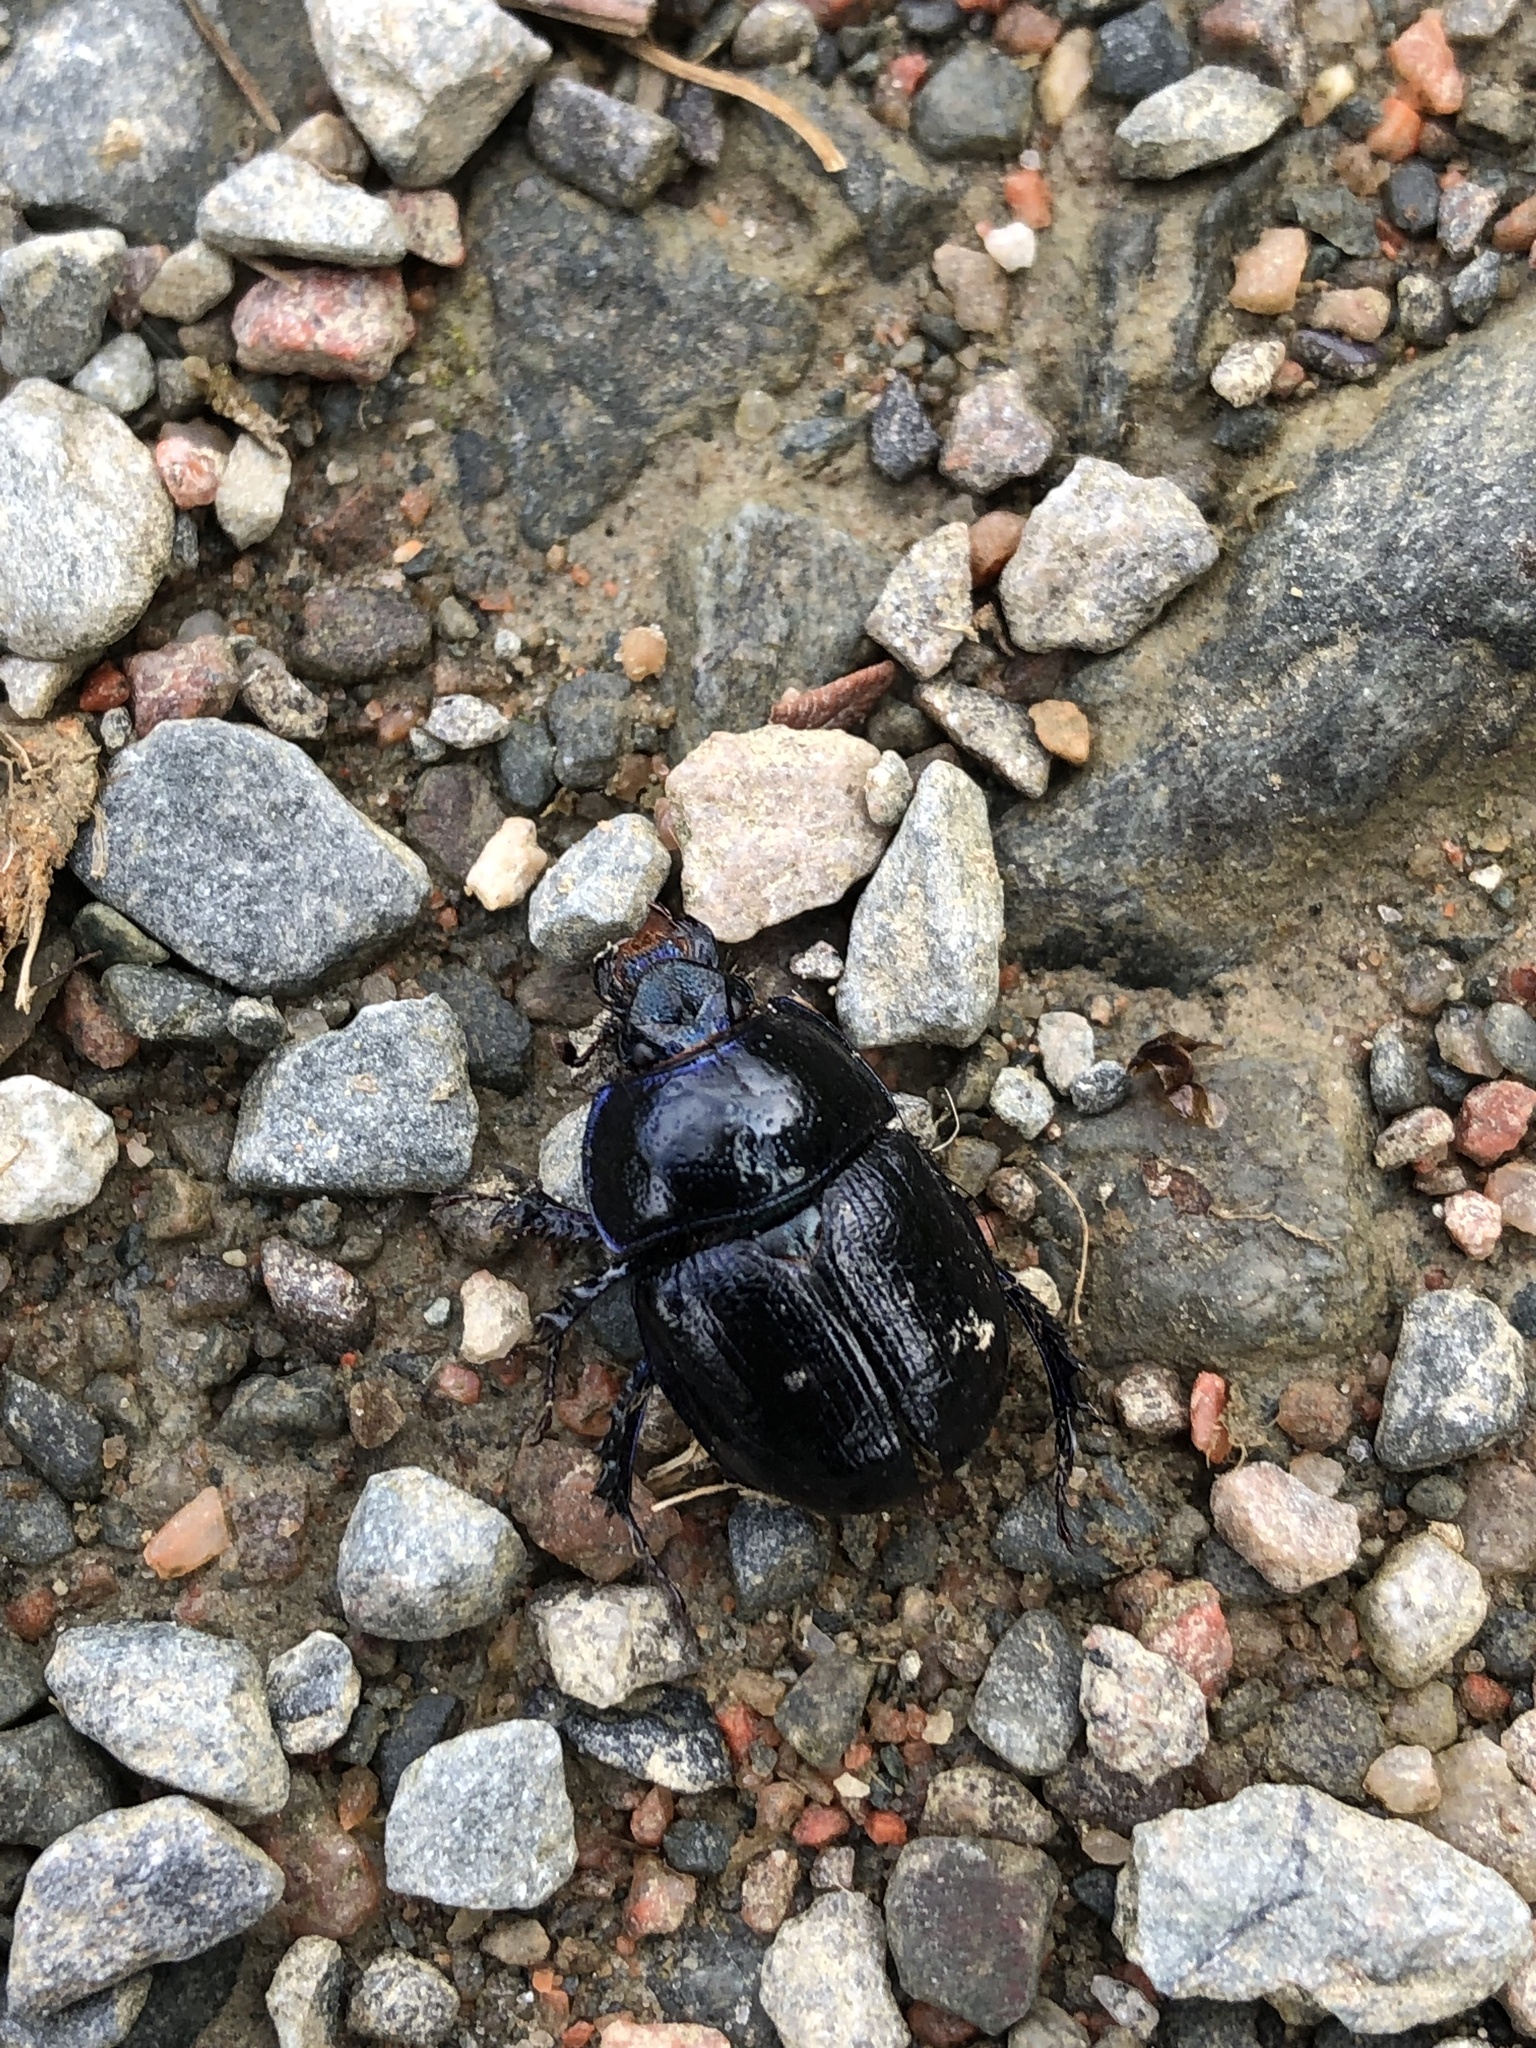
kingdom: Animalia
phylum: Arthropoda
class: Insecta
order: Coleoptera
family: Geotrupidae
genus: Anoplotrupes
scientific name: Anoplotrupes stercorosus
